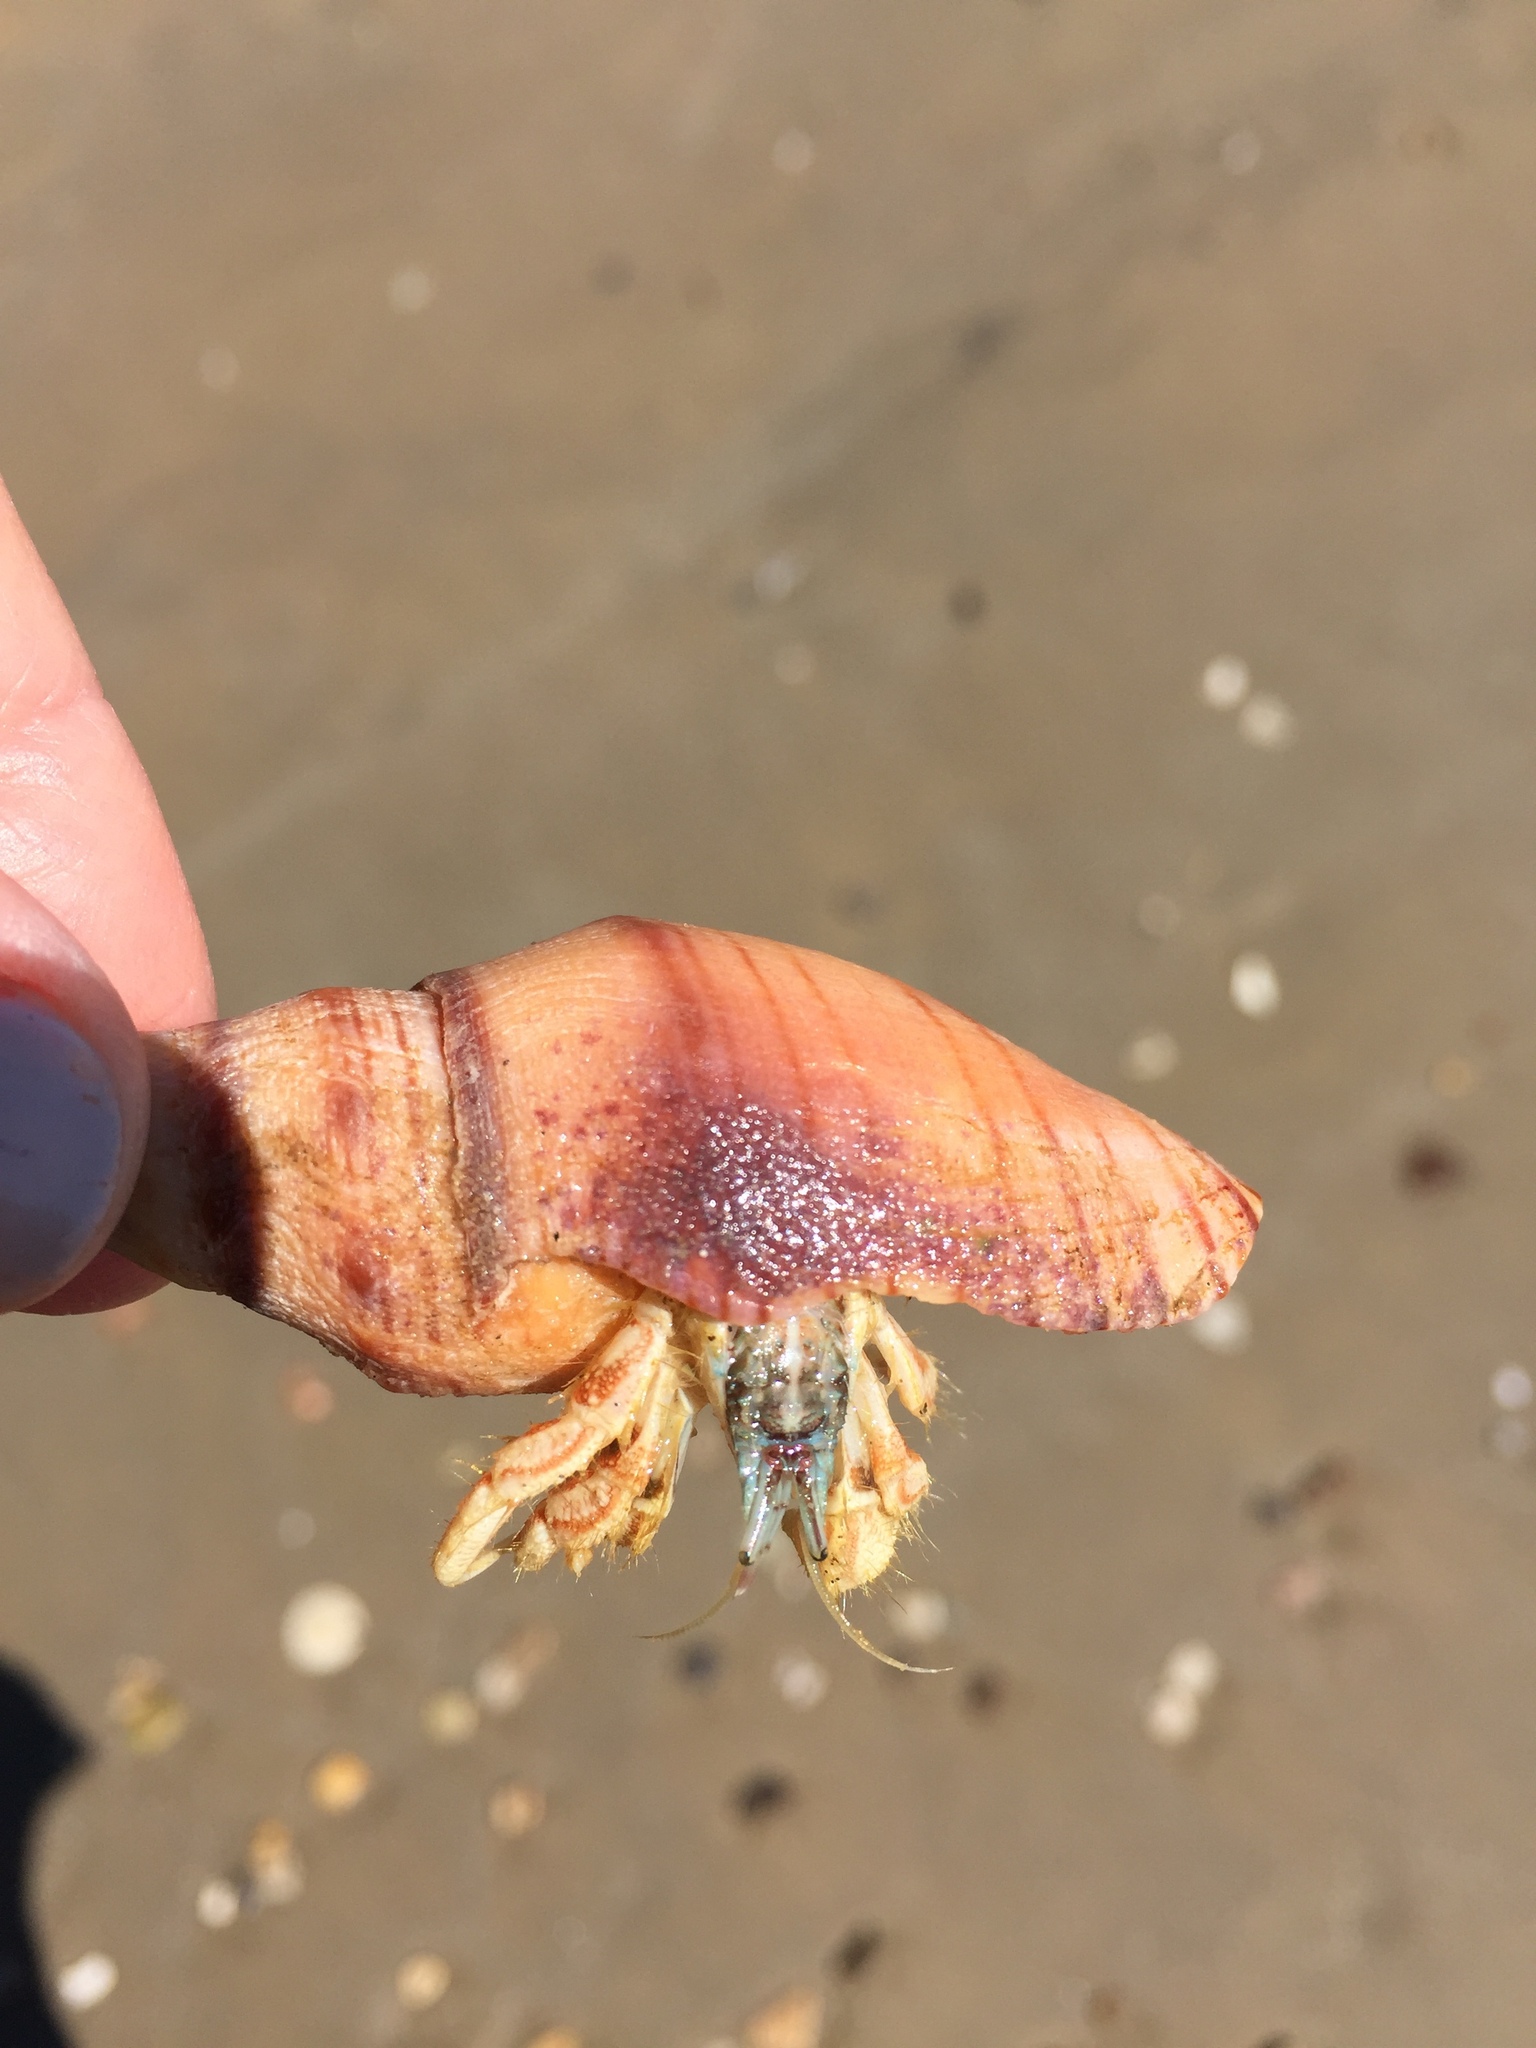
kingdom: Animalia
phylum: Arthropoda
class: Malacostraca
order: Decapoda
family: Diogenidae
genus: Isocheles
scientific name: Isocheles pilosus
